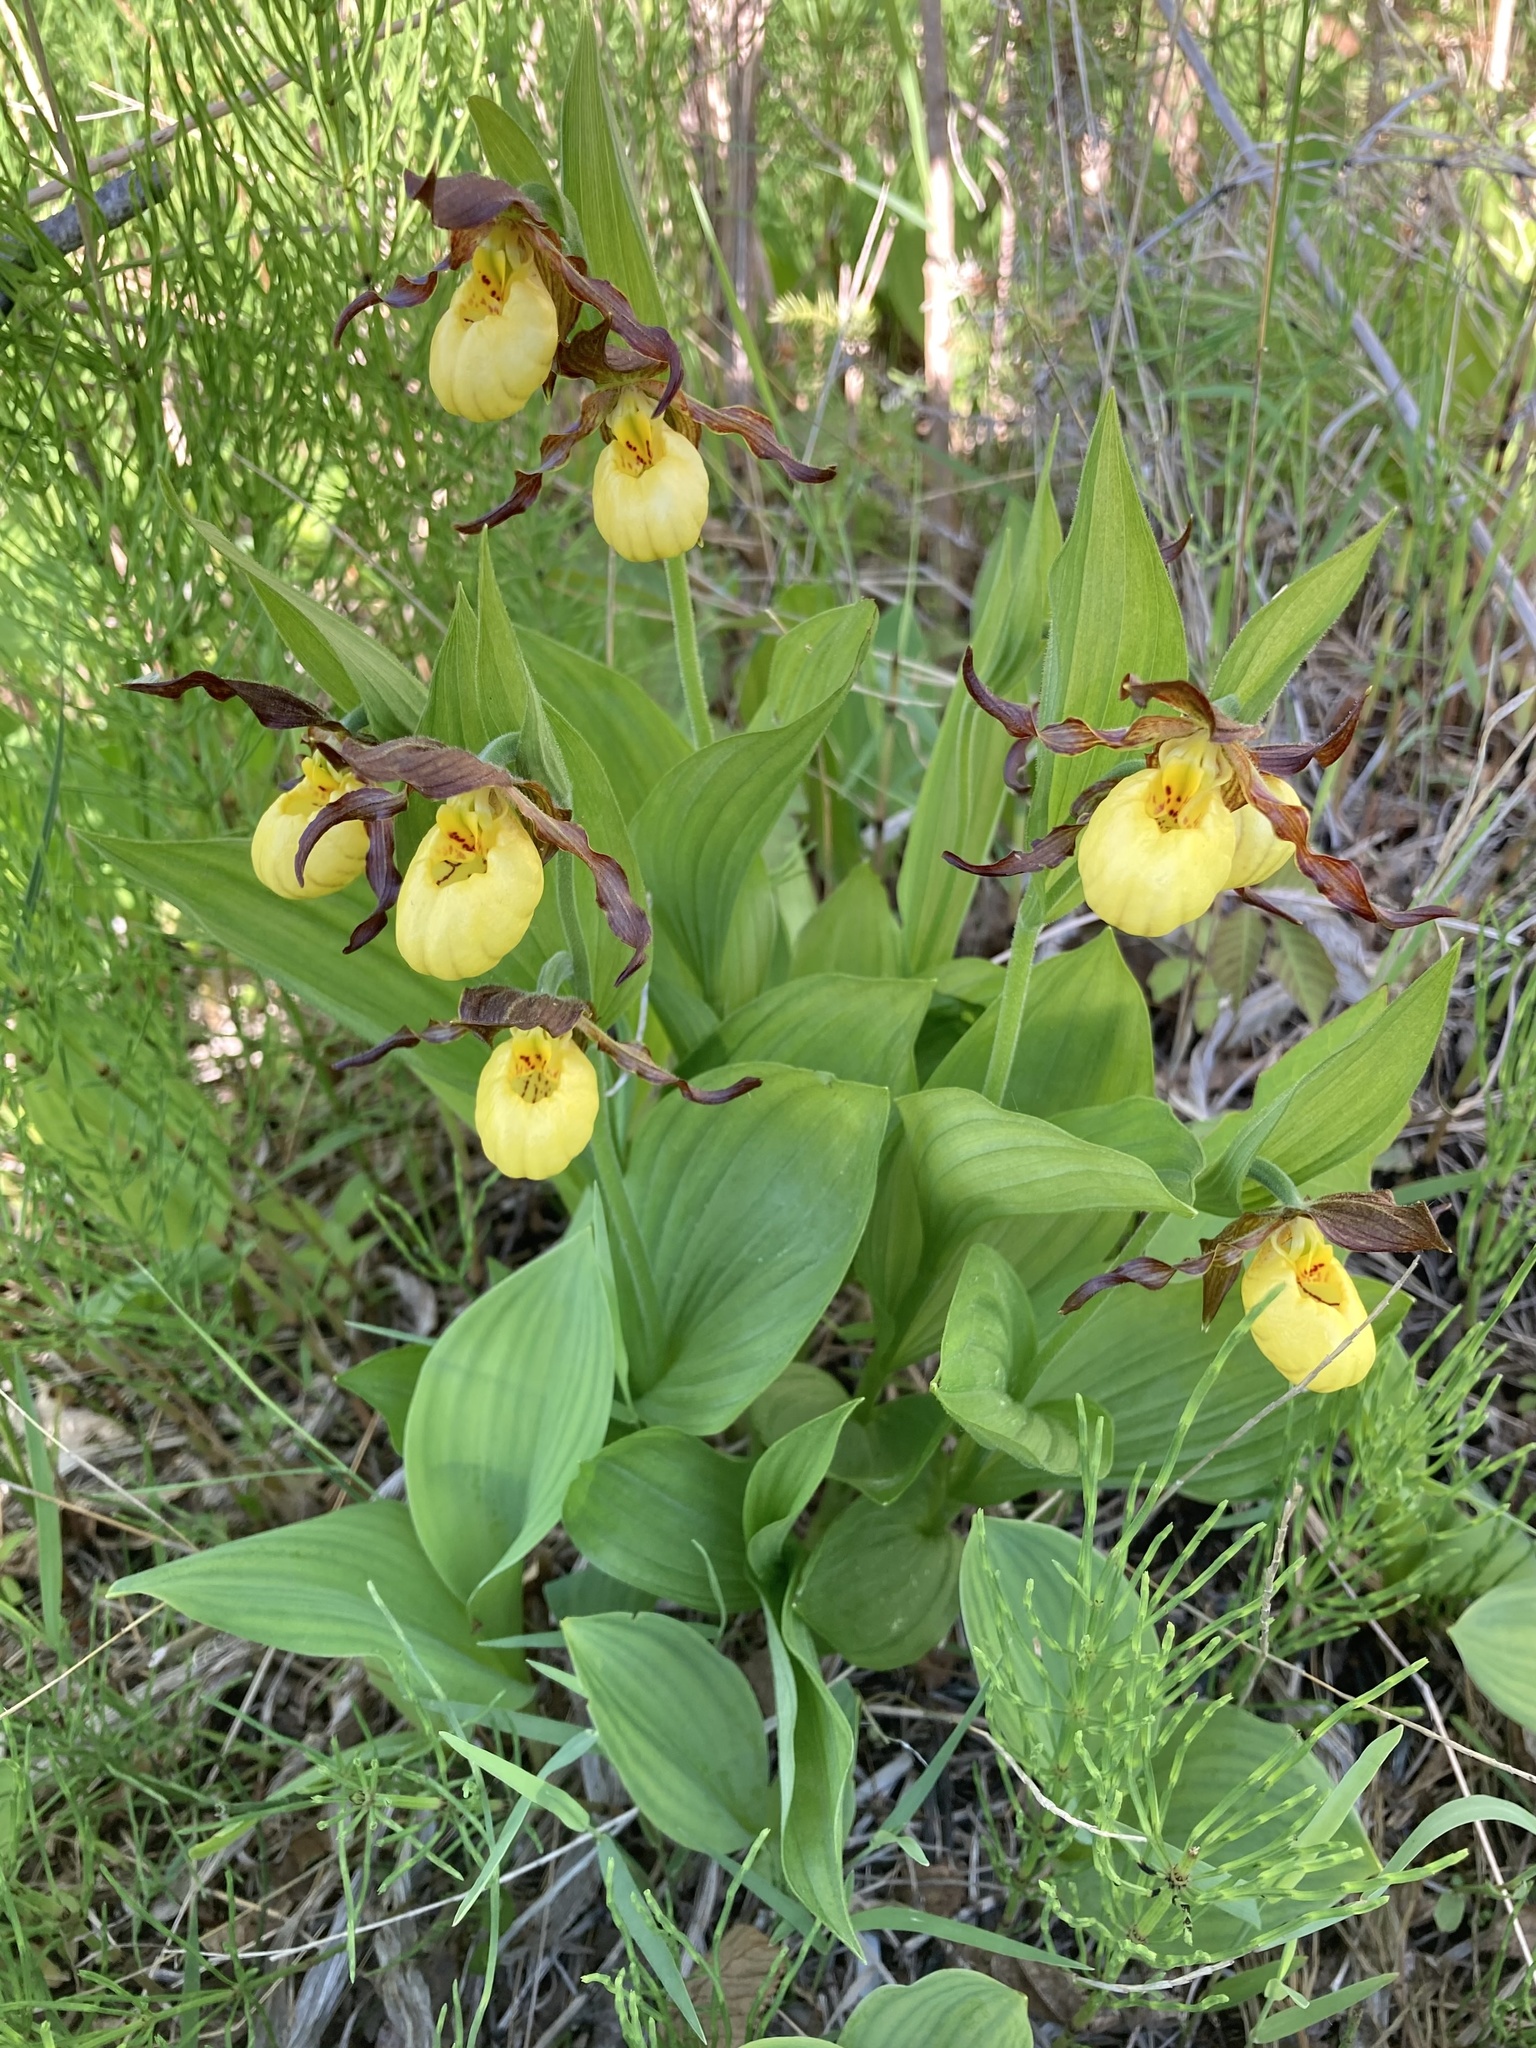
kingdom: Plantae
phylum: Tracheophyta
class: Liliopsida
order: Asparagales
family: Orchidaceae
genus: Cypripedium
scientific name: Cypripedium parviflorum
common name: American yellow lady's-slipper
